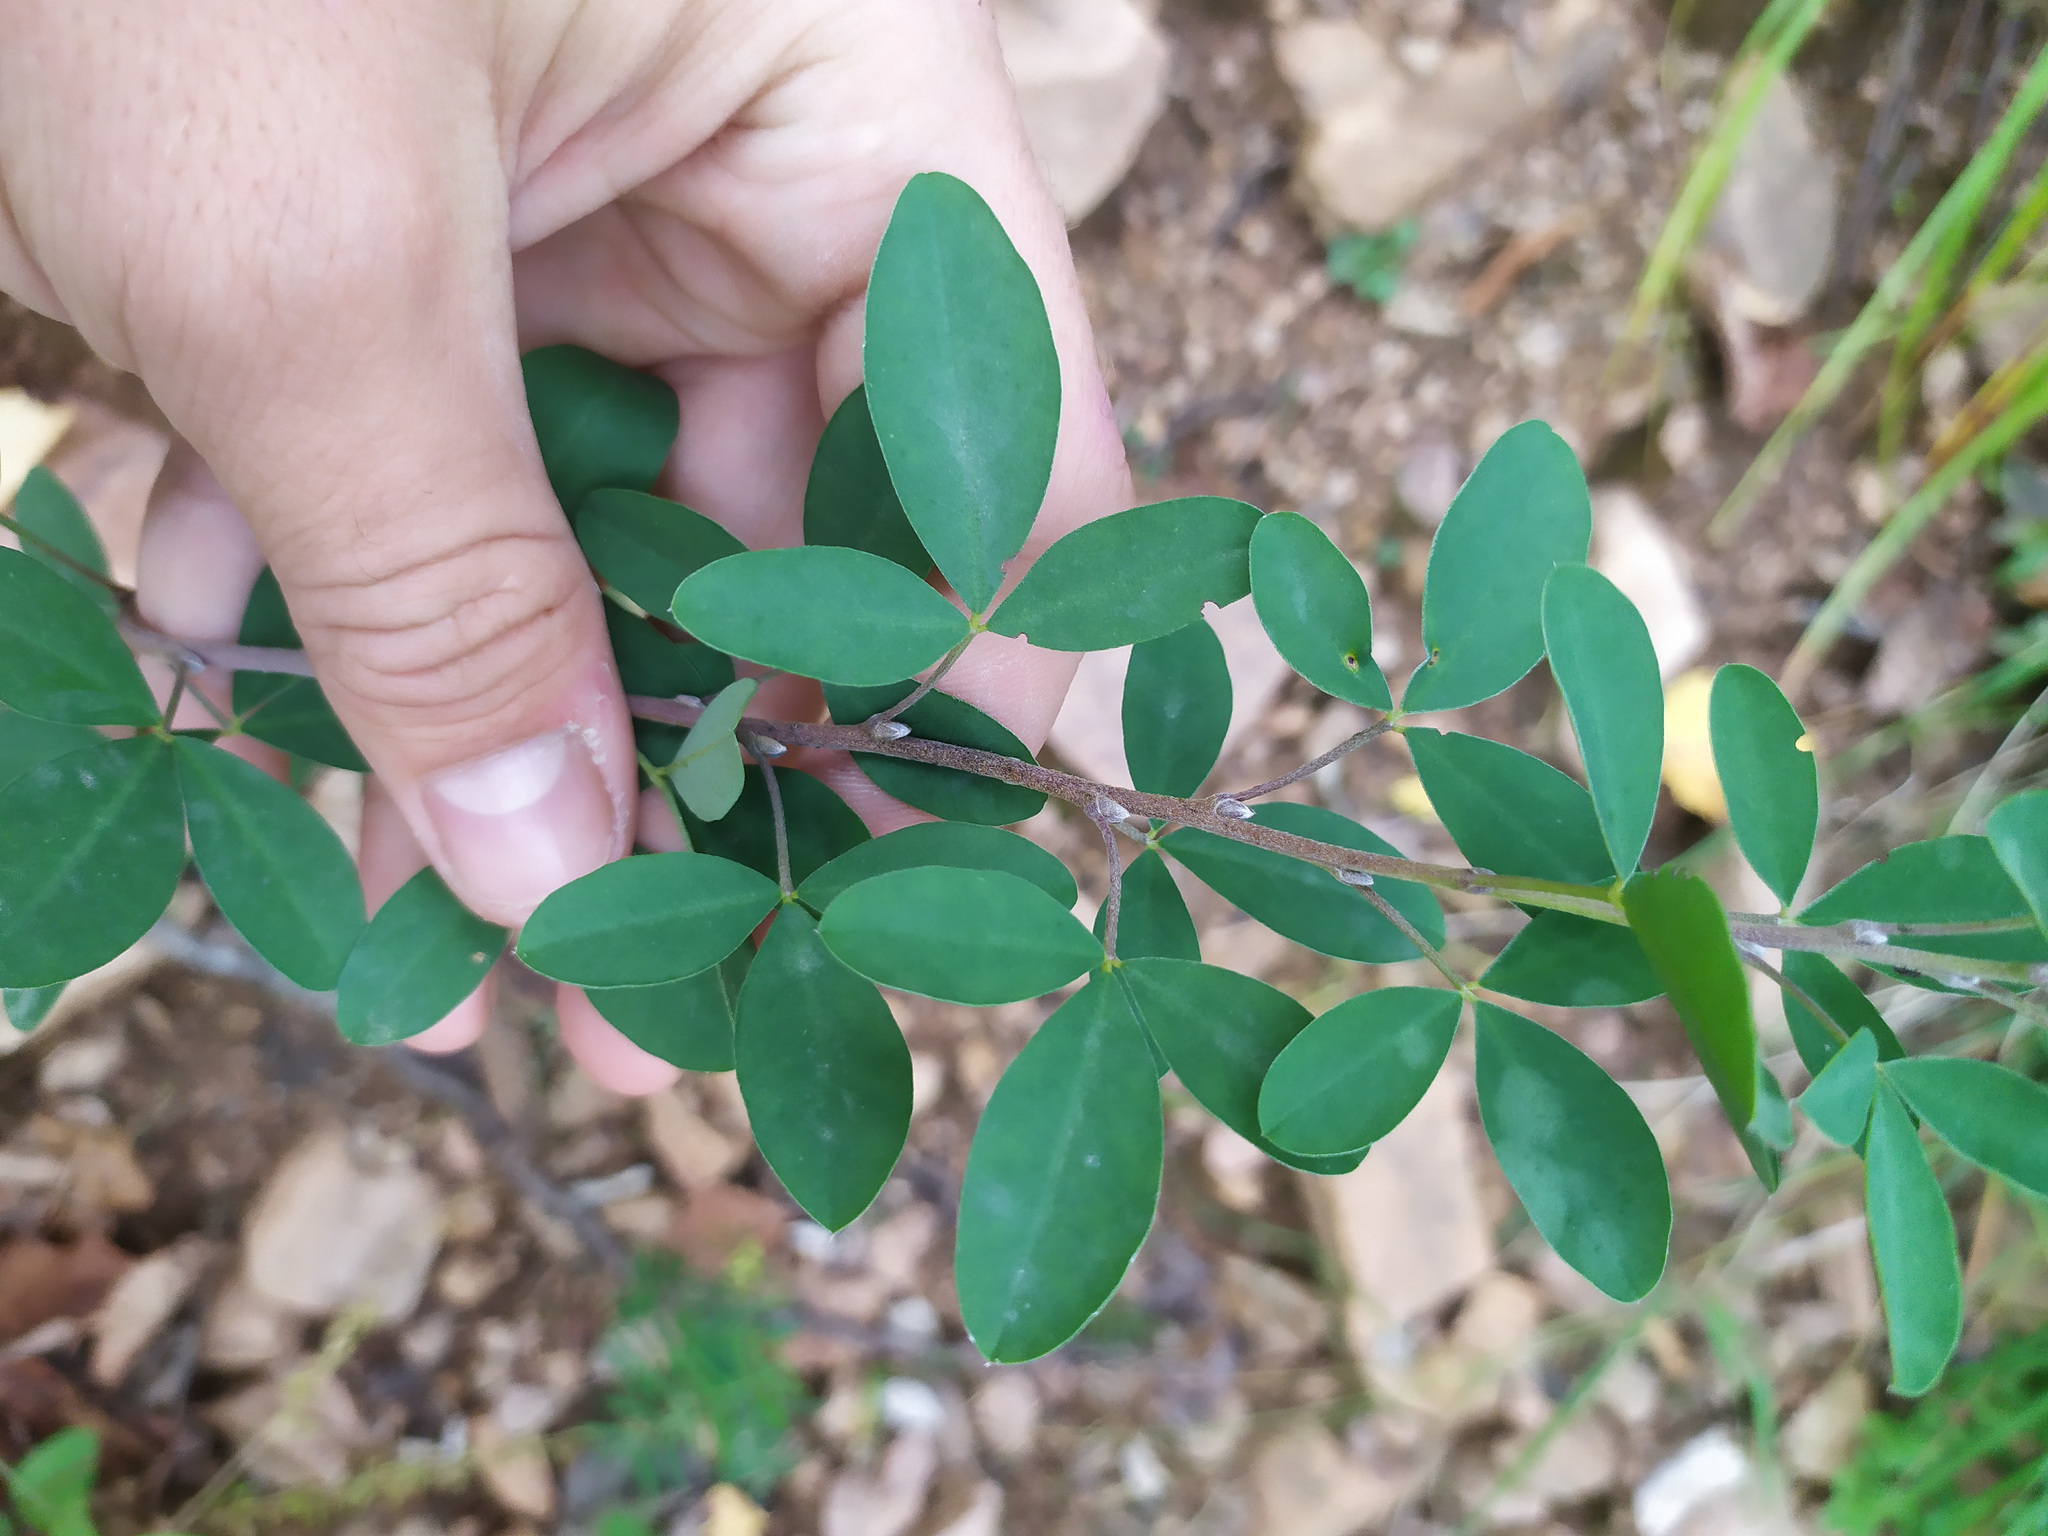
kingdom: Plantae
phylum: Tracheophyta
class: Magnoliopsida
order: Fabales
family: Fabaceae
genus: Chamaecytisus
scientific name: Chamaecytisus ruthenicus
